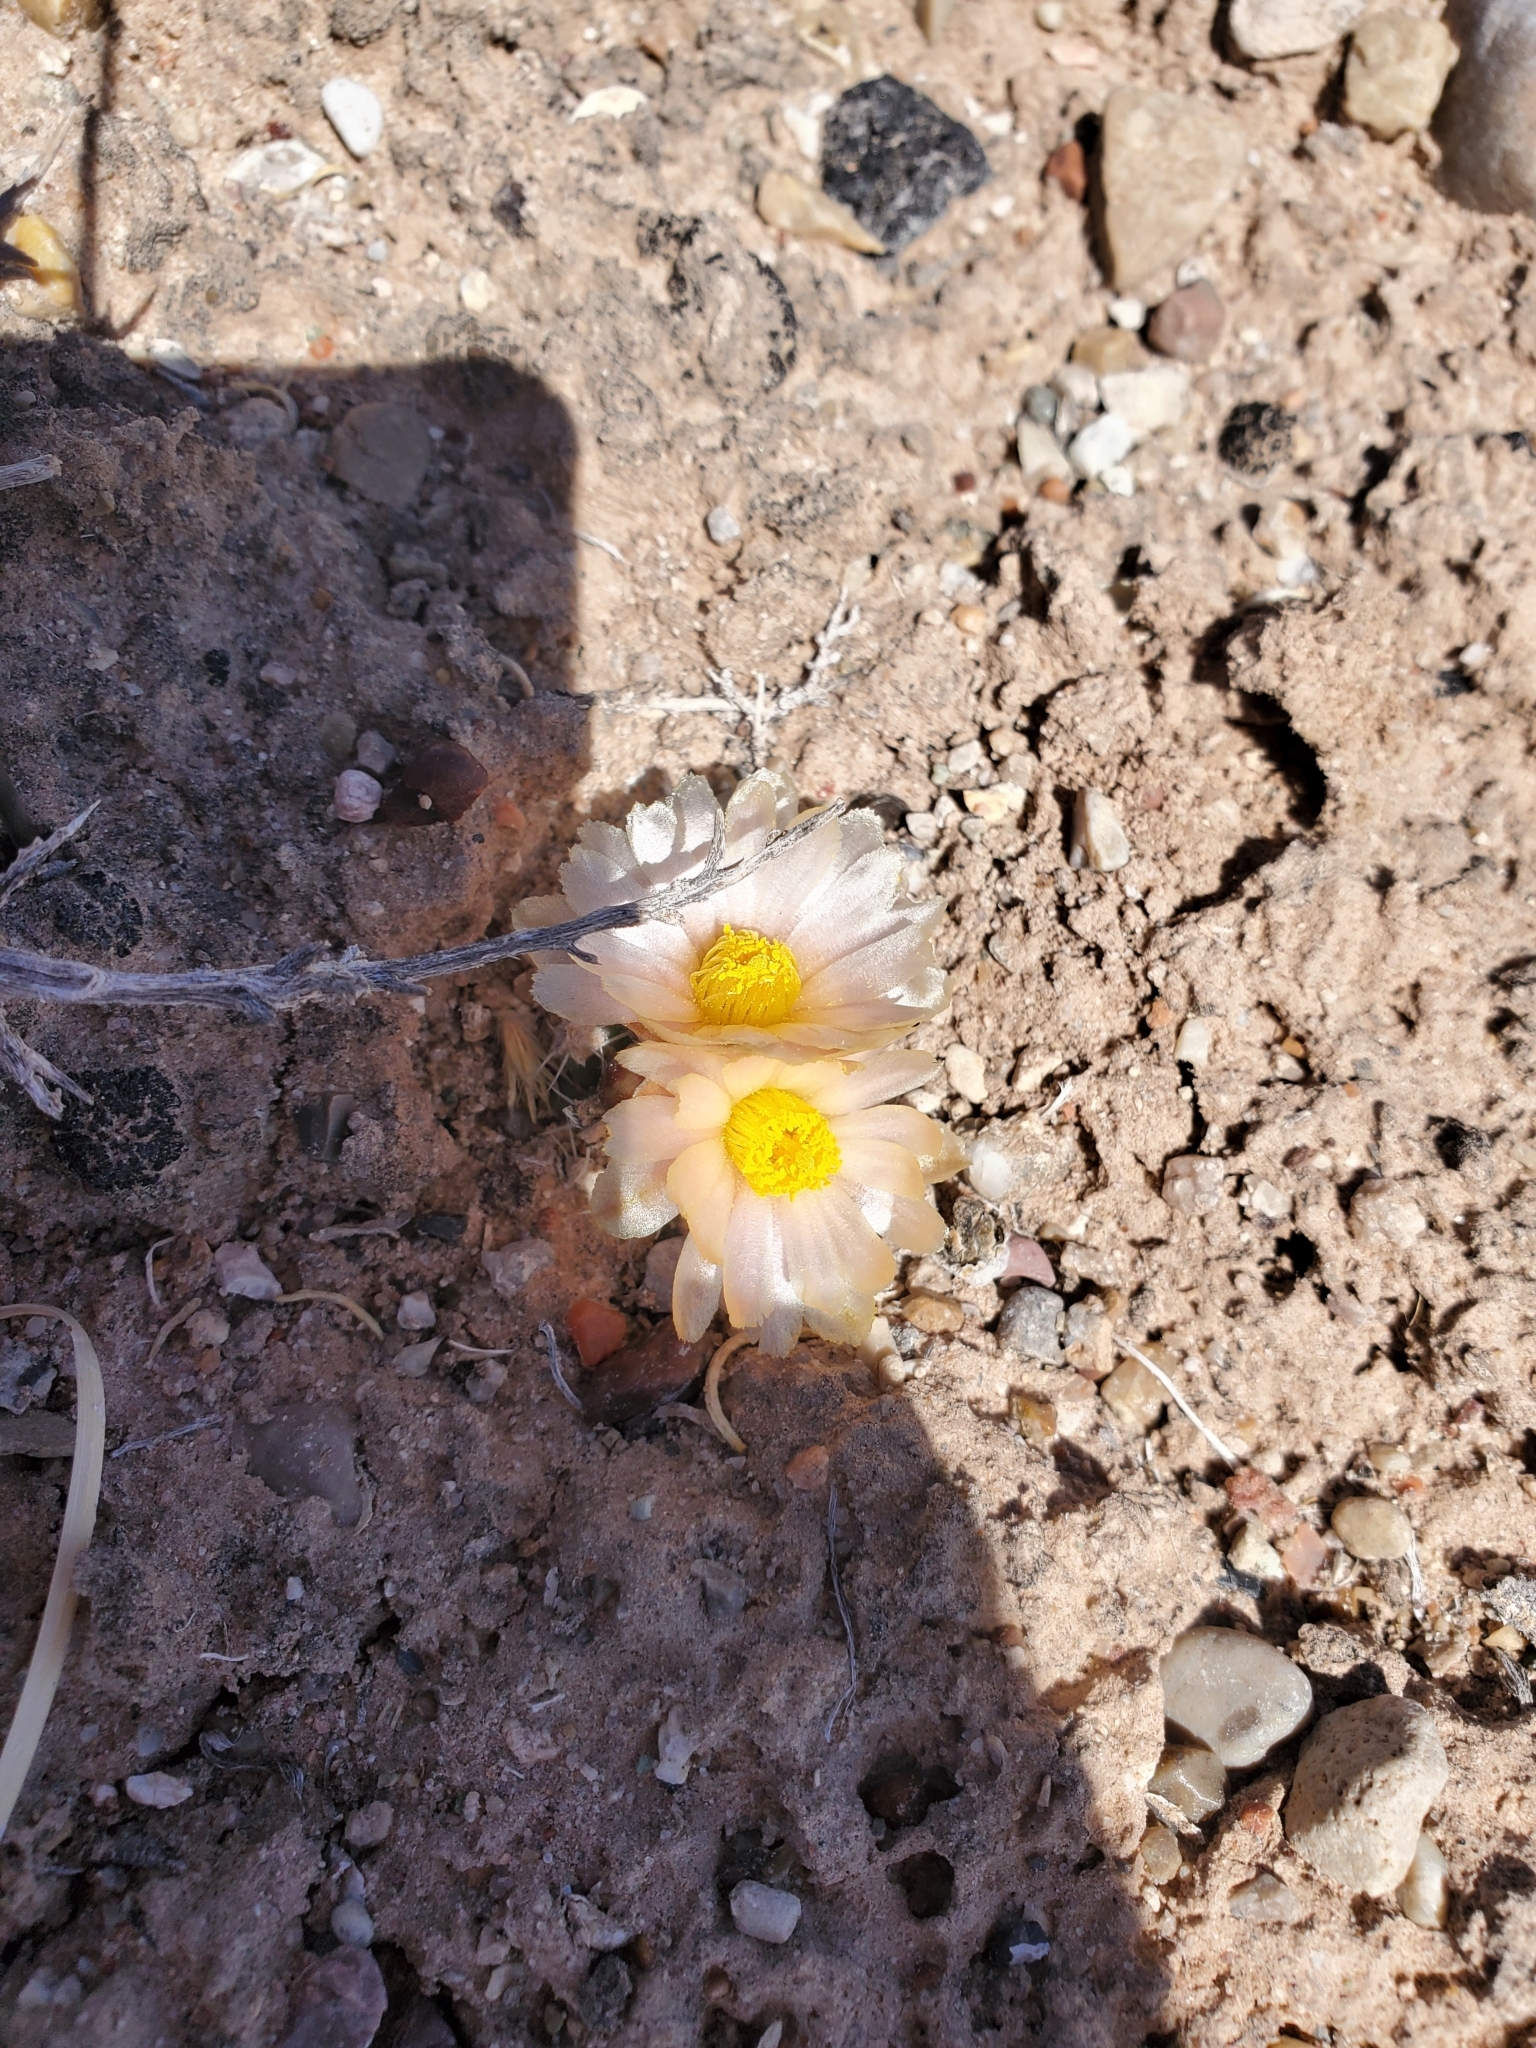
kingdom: Plantae
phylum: Tracheophyta
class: Magnoliopsida
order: Caryophyllales
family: Cactaceae
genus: Pediocactus
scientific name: Pediocactus bradyi
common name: Brady's hedgehog cactus
